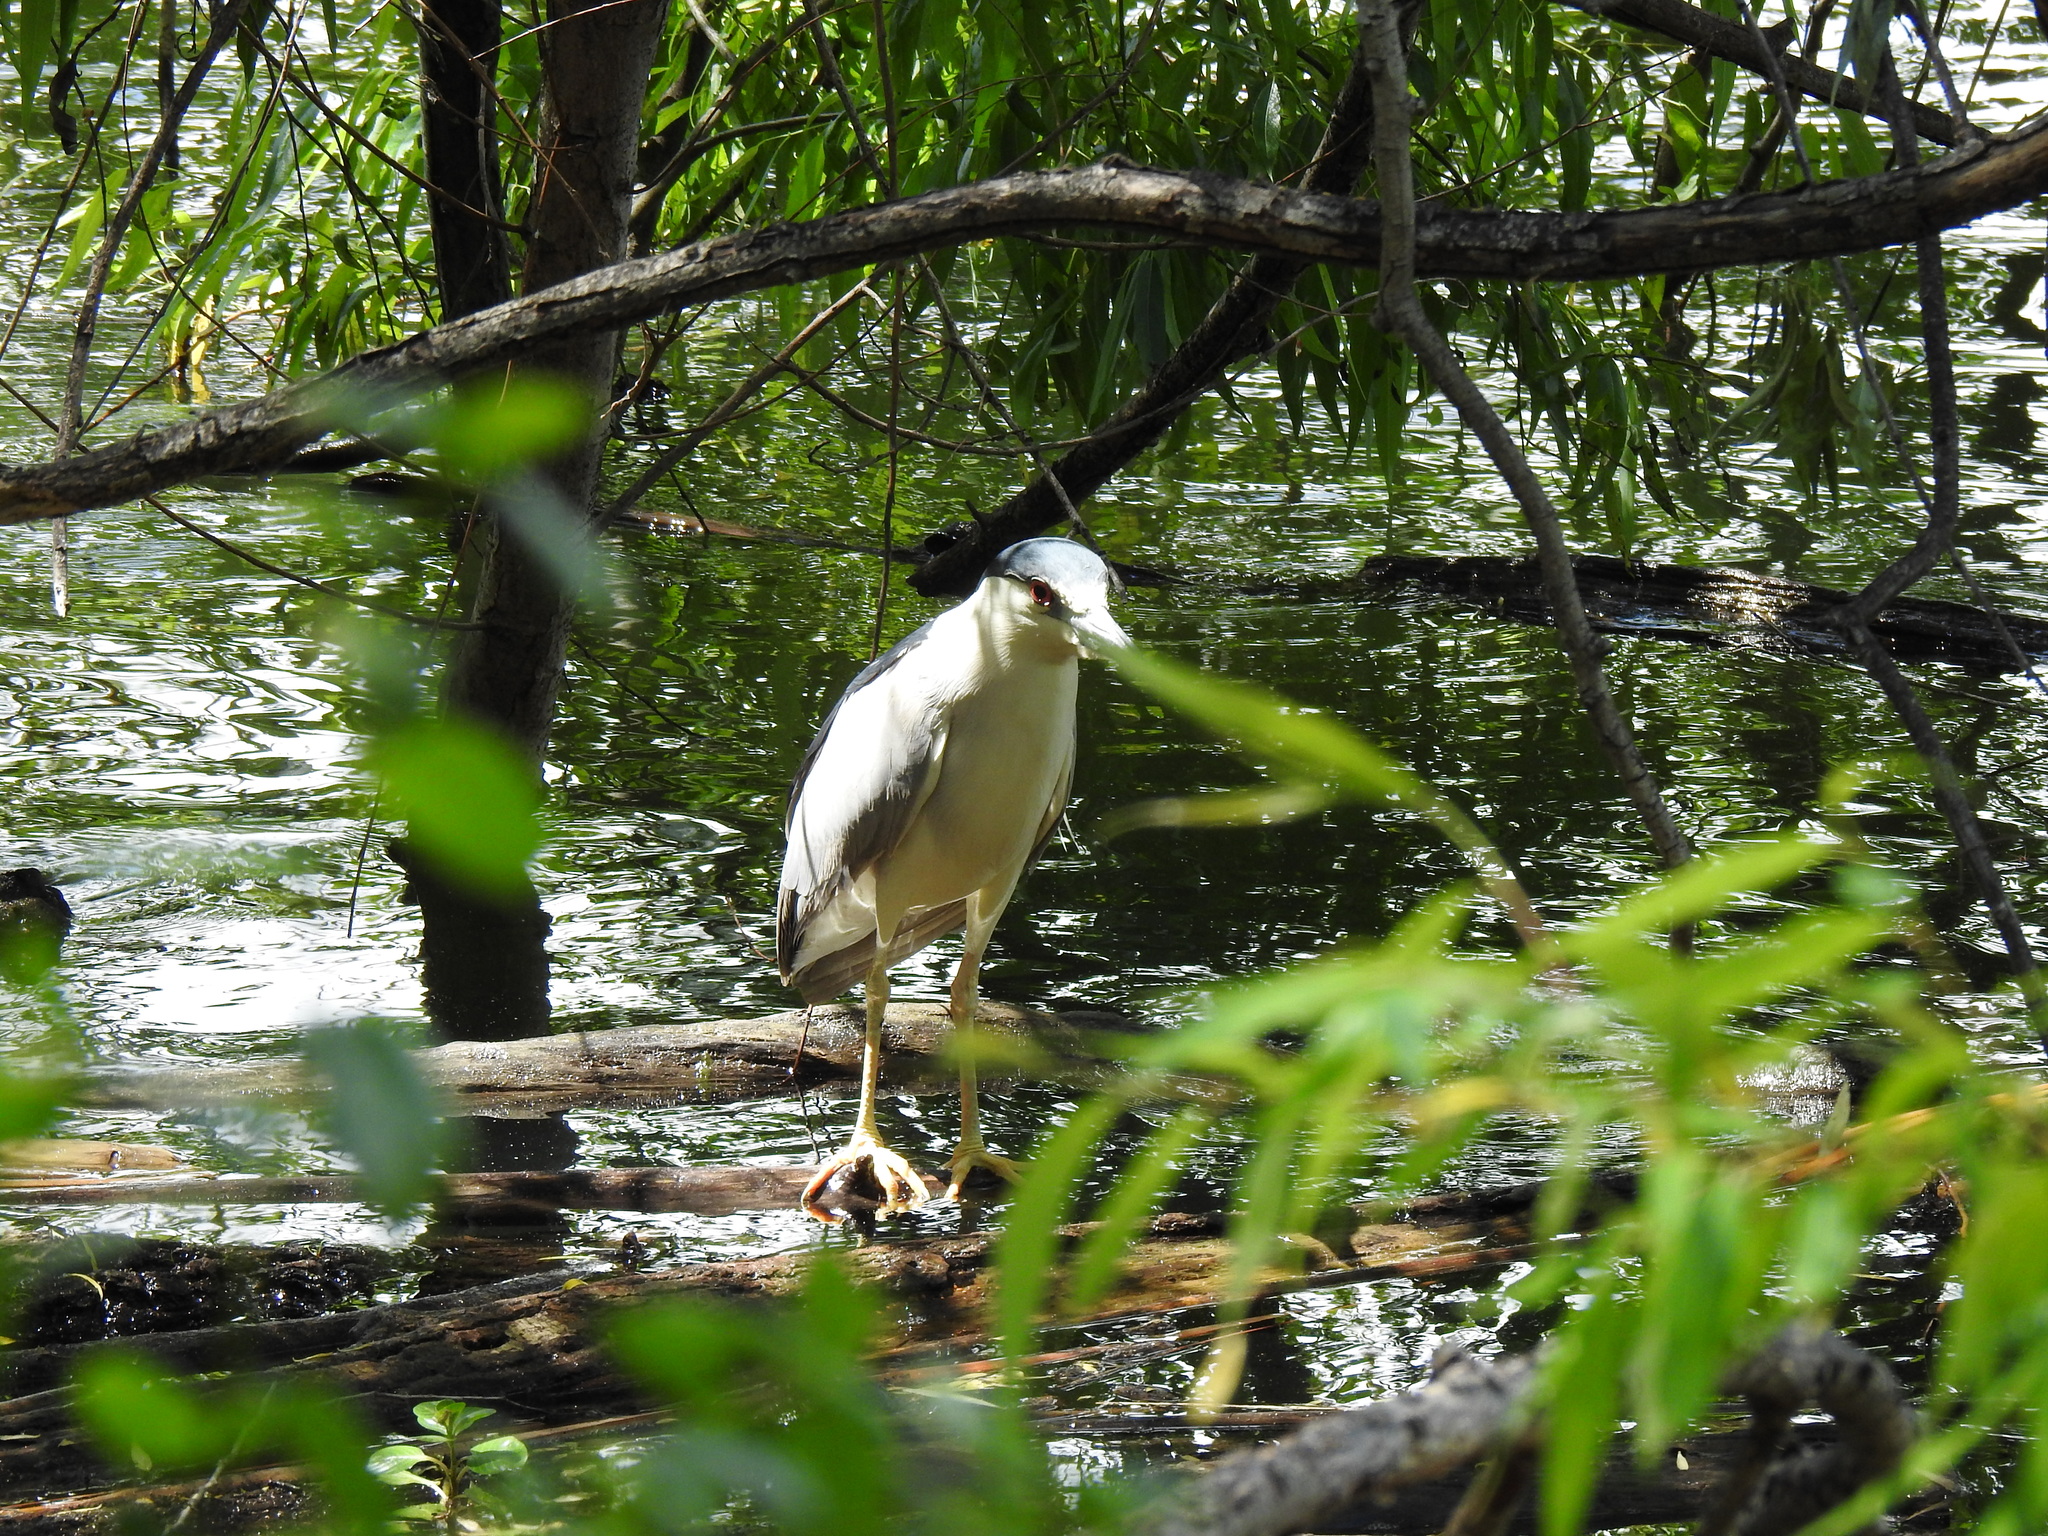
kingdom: Animalia
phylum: Chordata
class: Aves
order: Pelecaniformes
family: Ardeidae
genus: Nycticorax
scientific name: Nycticorax nycticorax
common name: Black-crowned night heron
